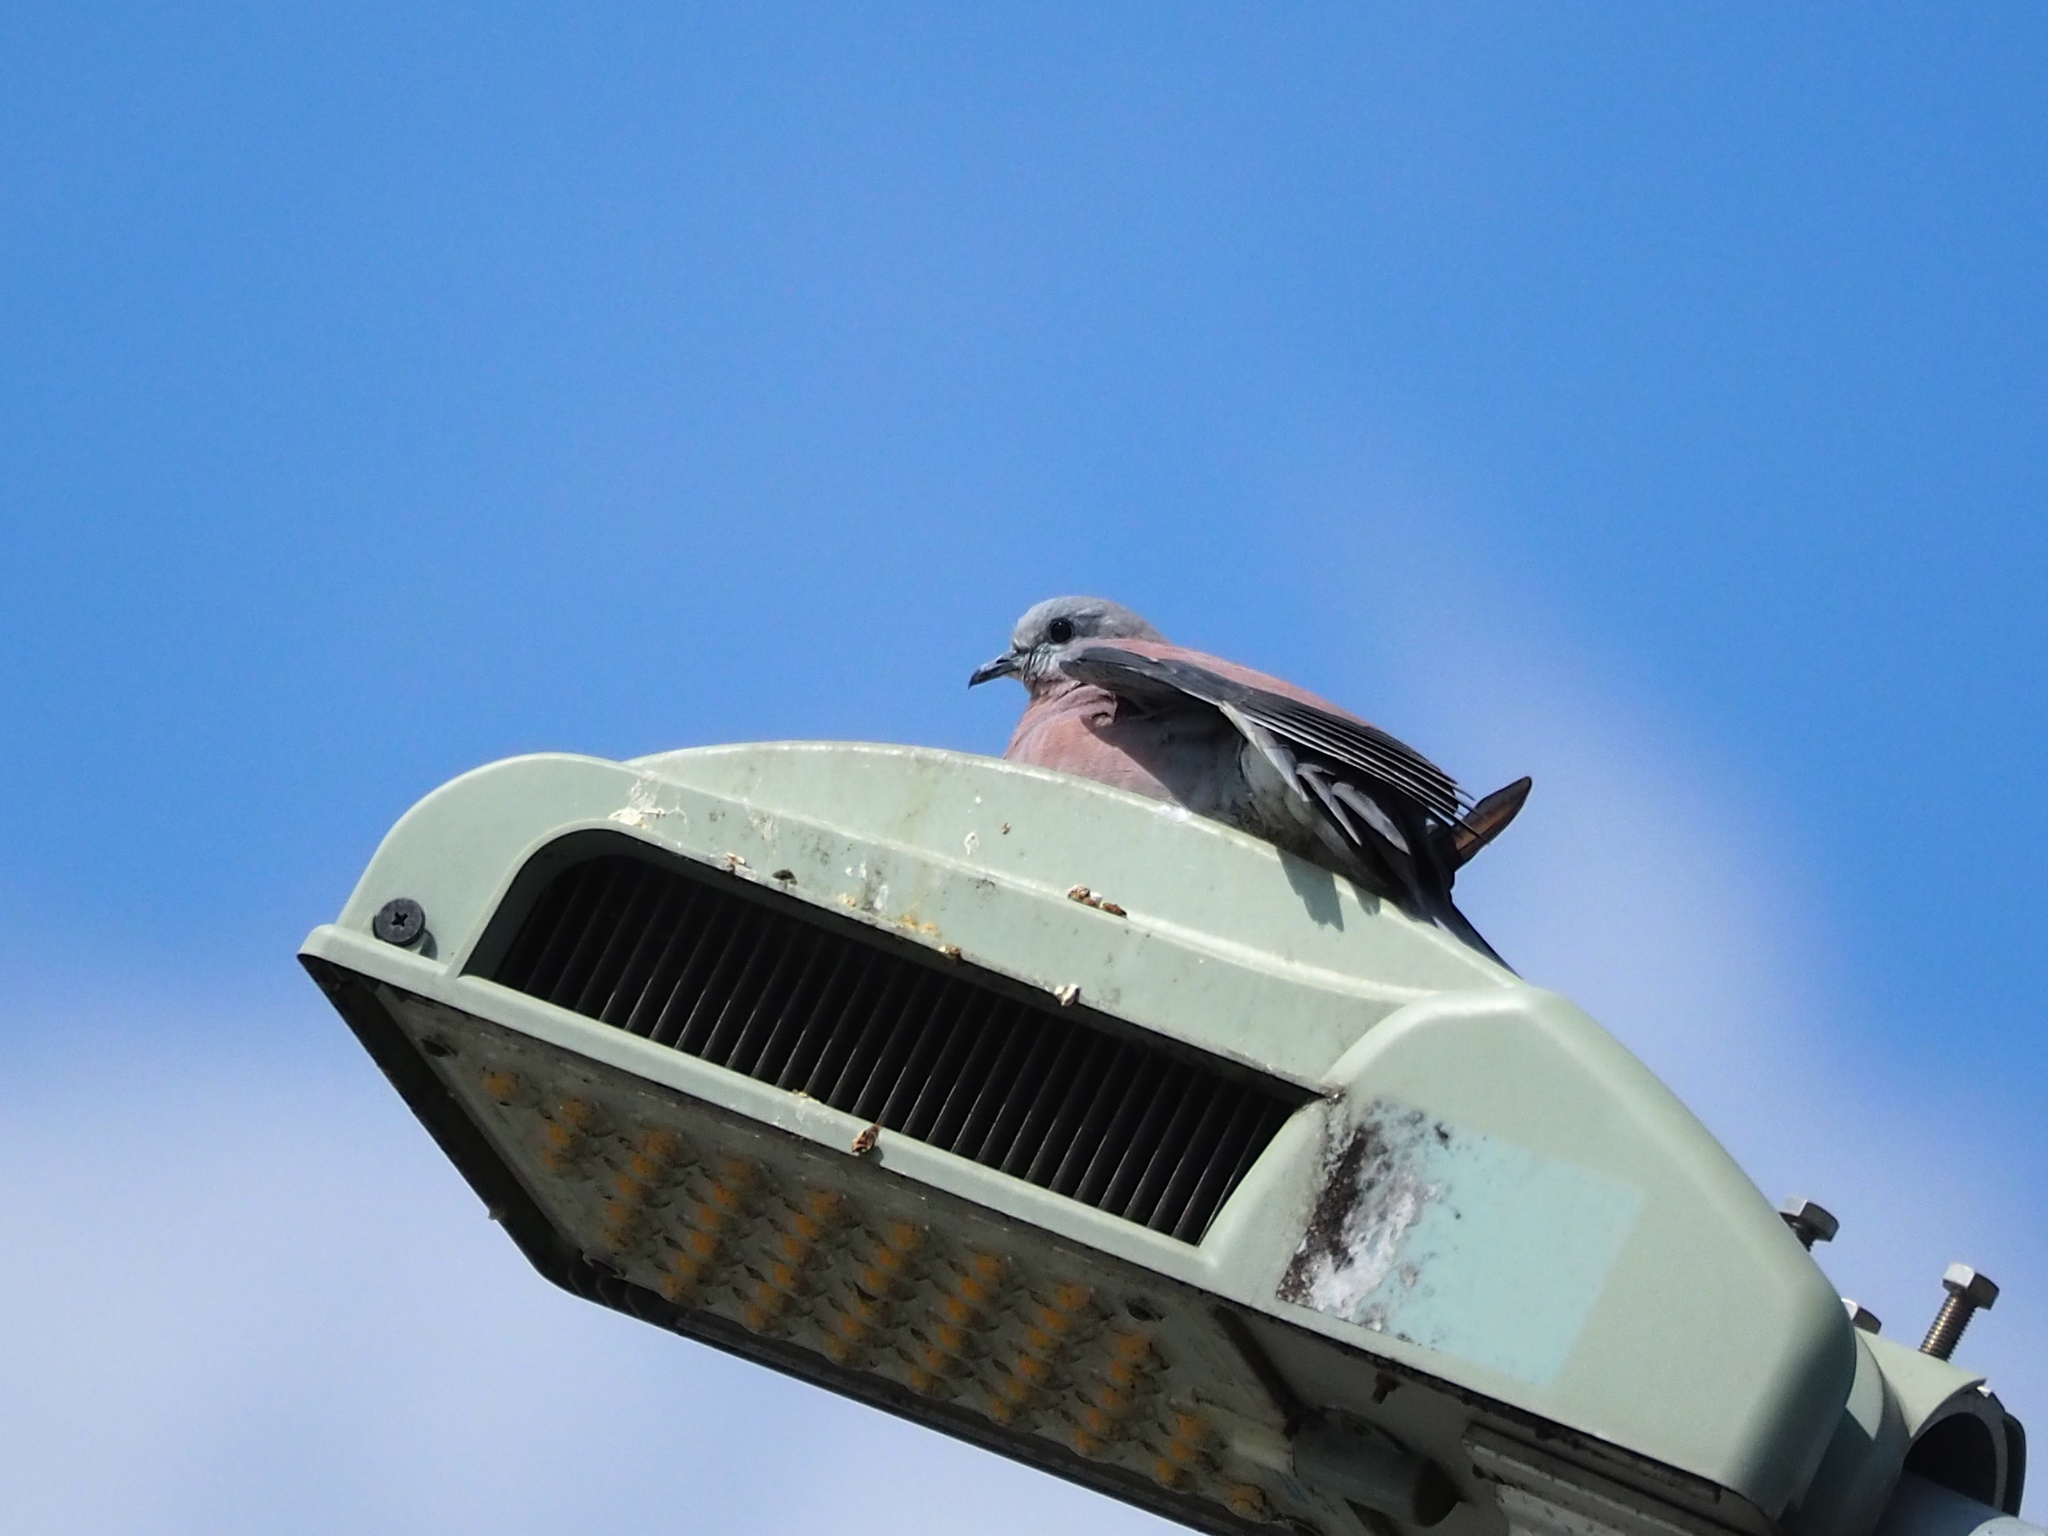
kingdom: Animalia
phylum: Chordata
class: Aves
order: Columbiformes
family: Columbidae
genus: Streptopelia
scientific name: Streptopelia tranquebarica
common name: Red turtle dove
